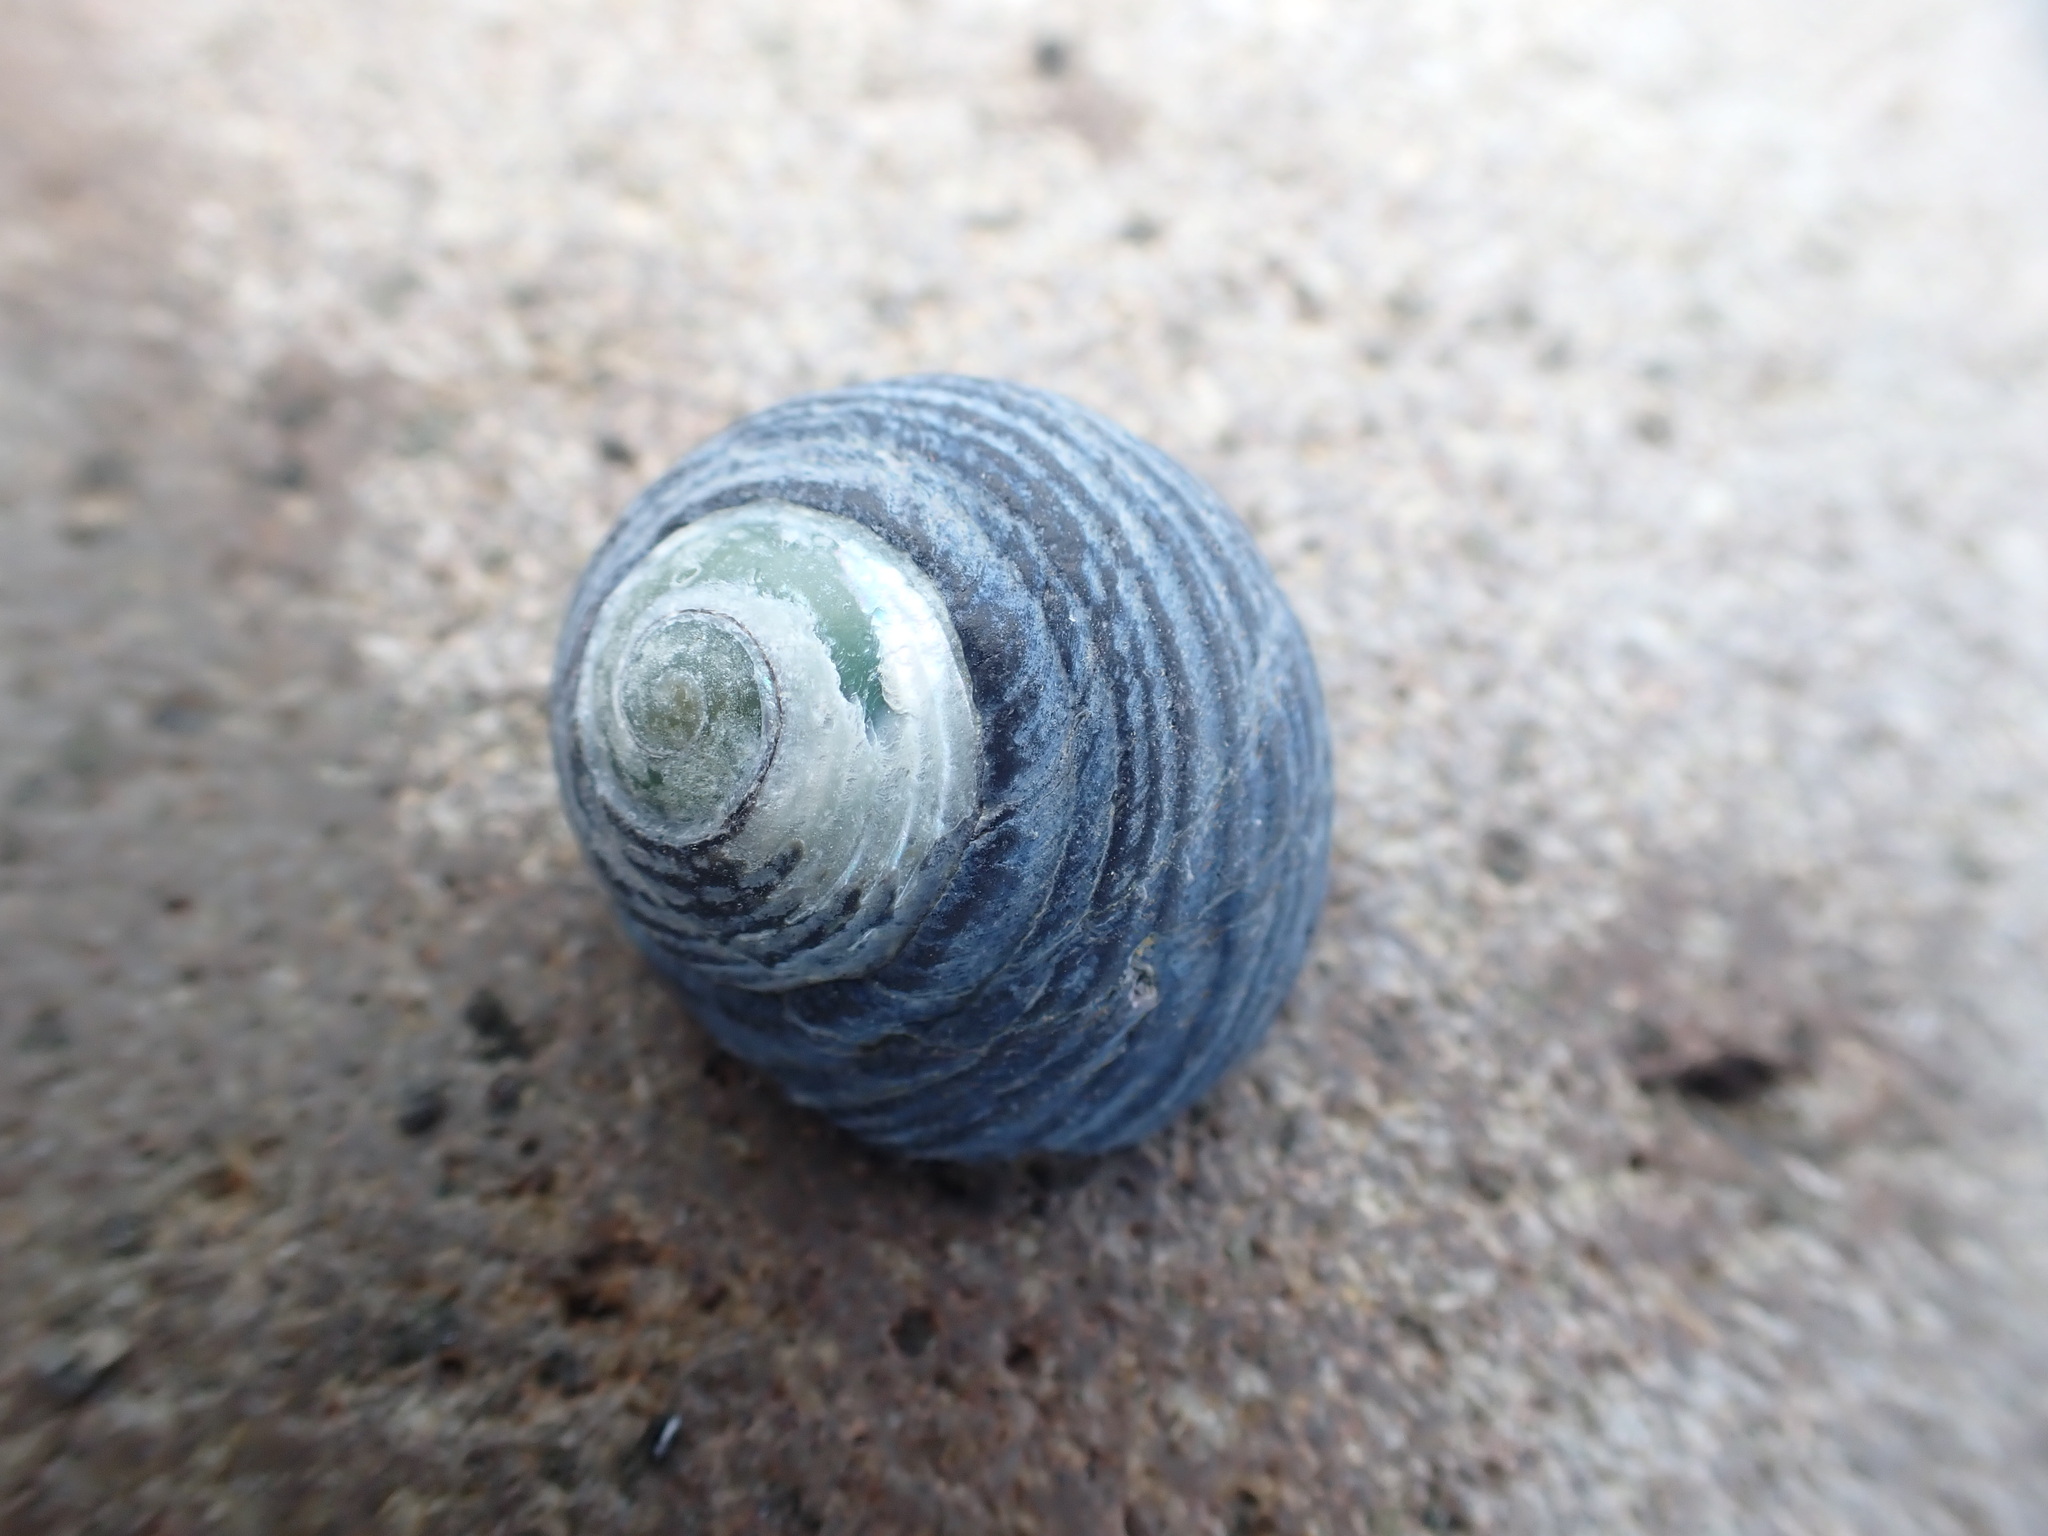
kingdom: Animalia
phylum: Mollusca
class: Gastropoda
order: Trochida
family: Trochidae
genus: Diloma
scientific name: Diloma zelandicum
